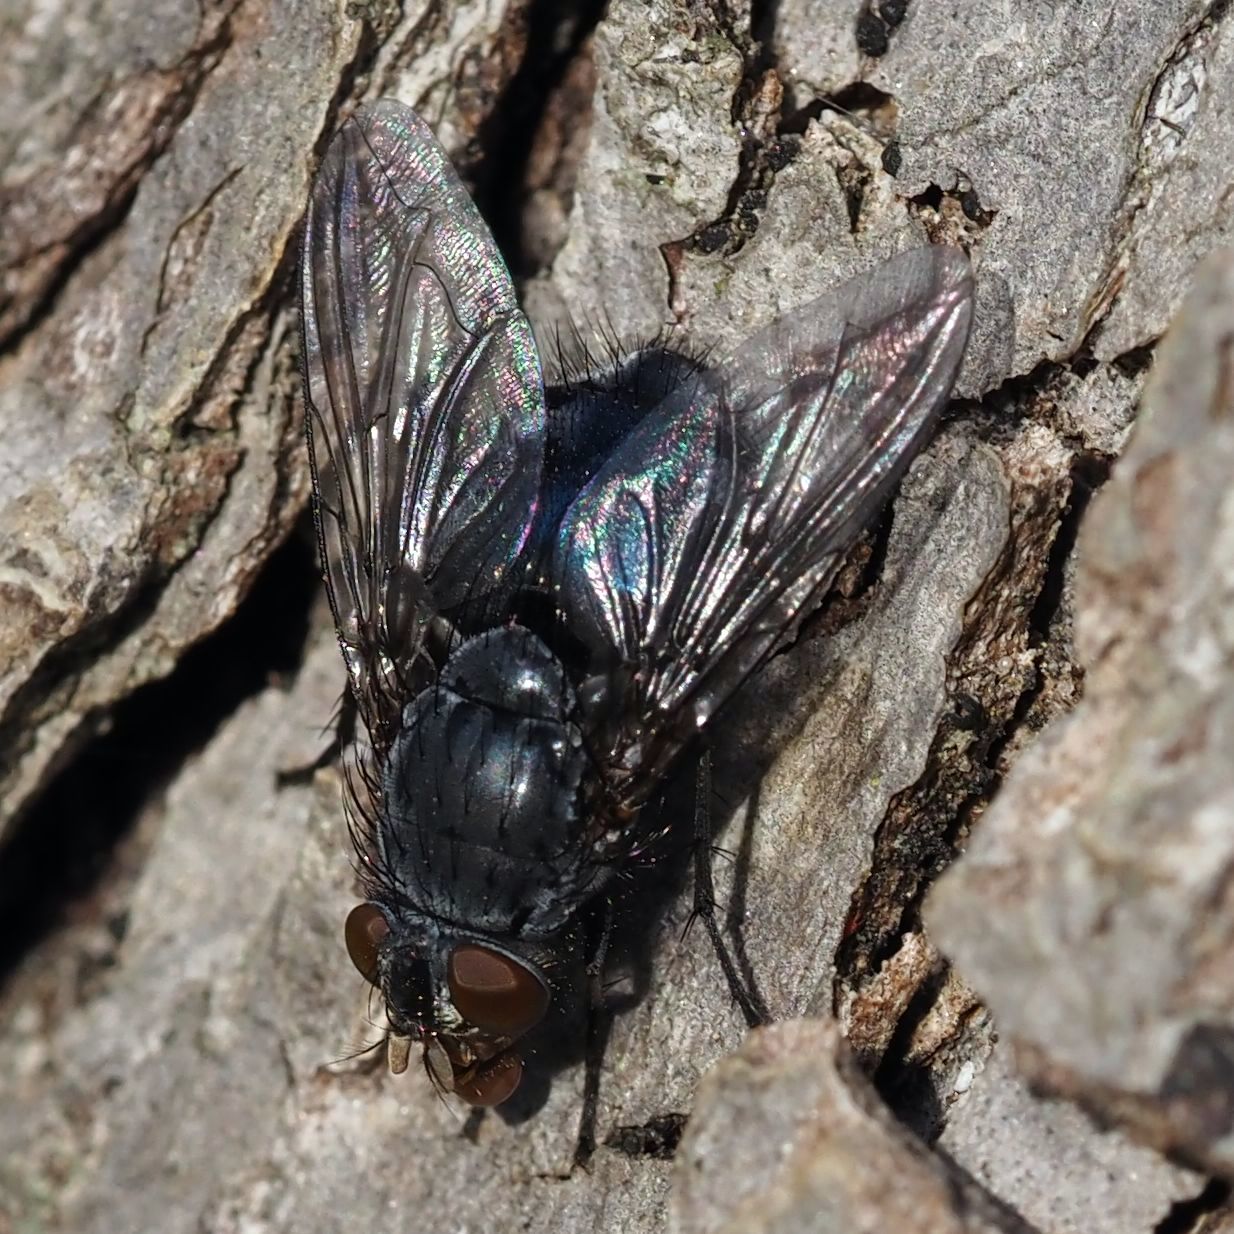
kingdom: Animalia
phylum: Arthropoda
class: Insecta
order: Diptera
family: Calliphoridae
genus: Calliphora
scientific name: Calliphora vicina
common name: Common blow flie
